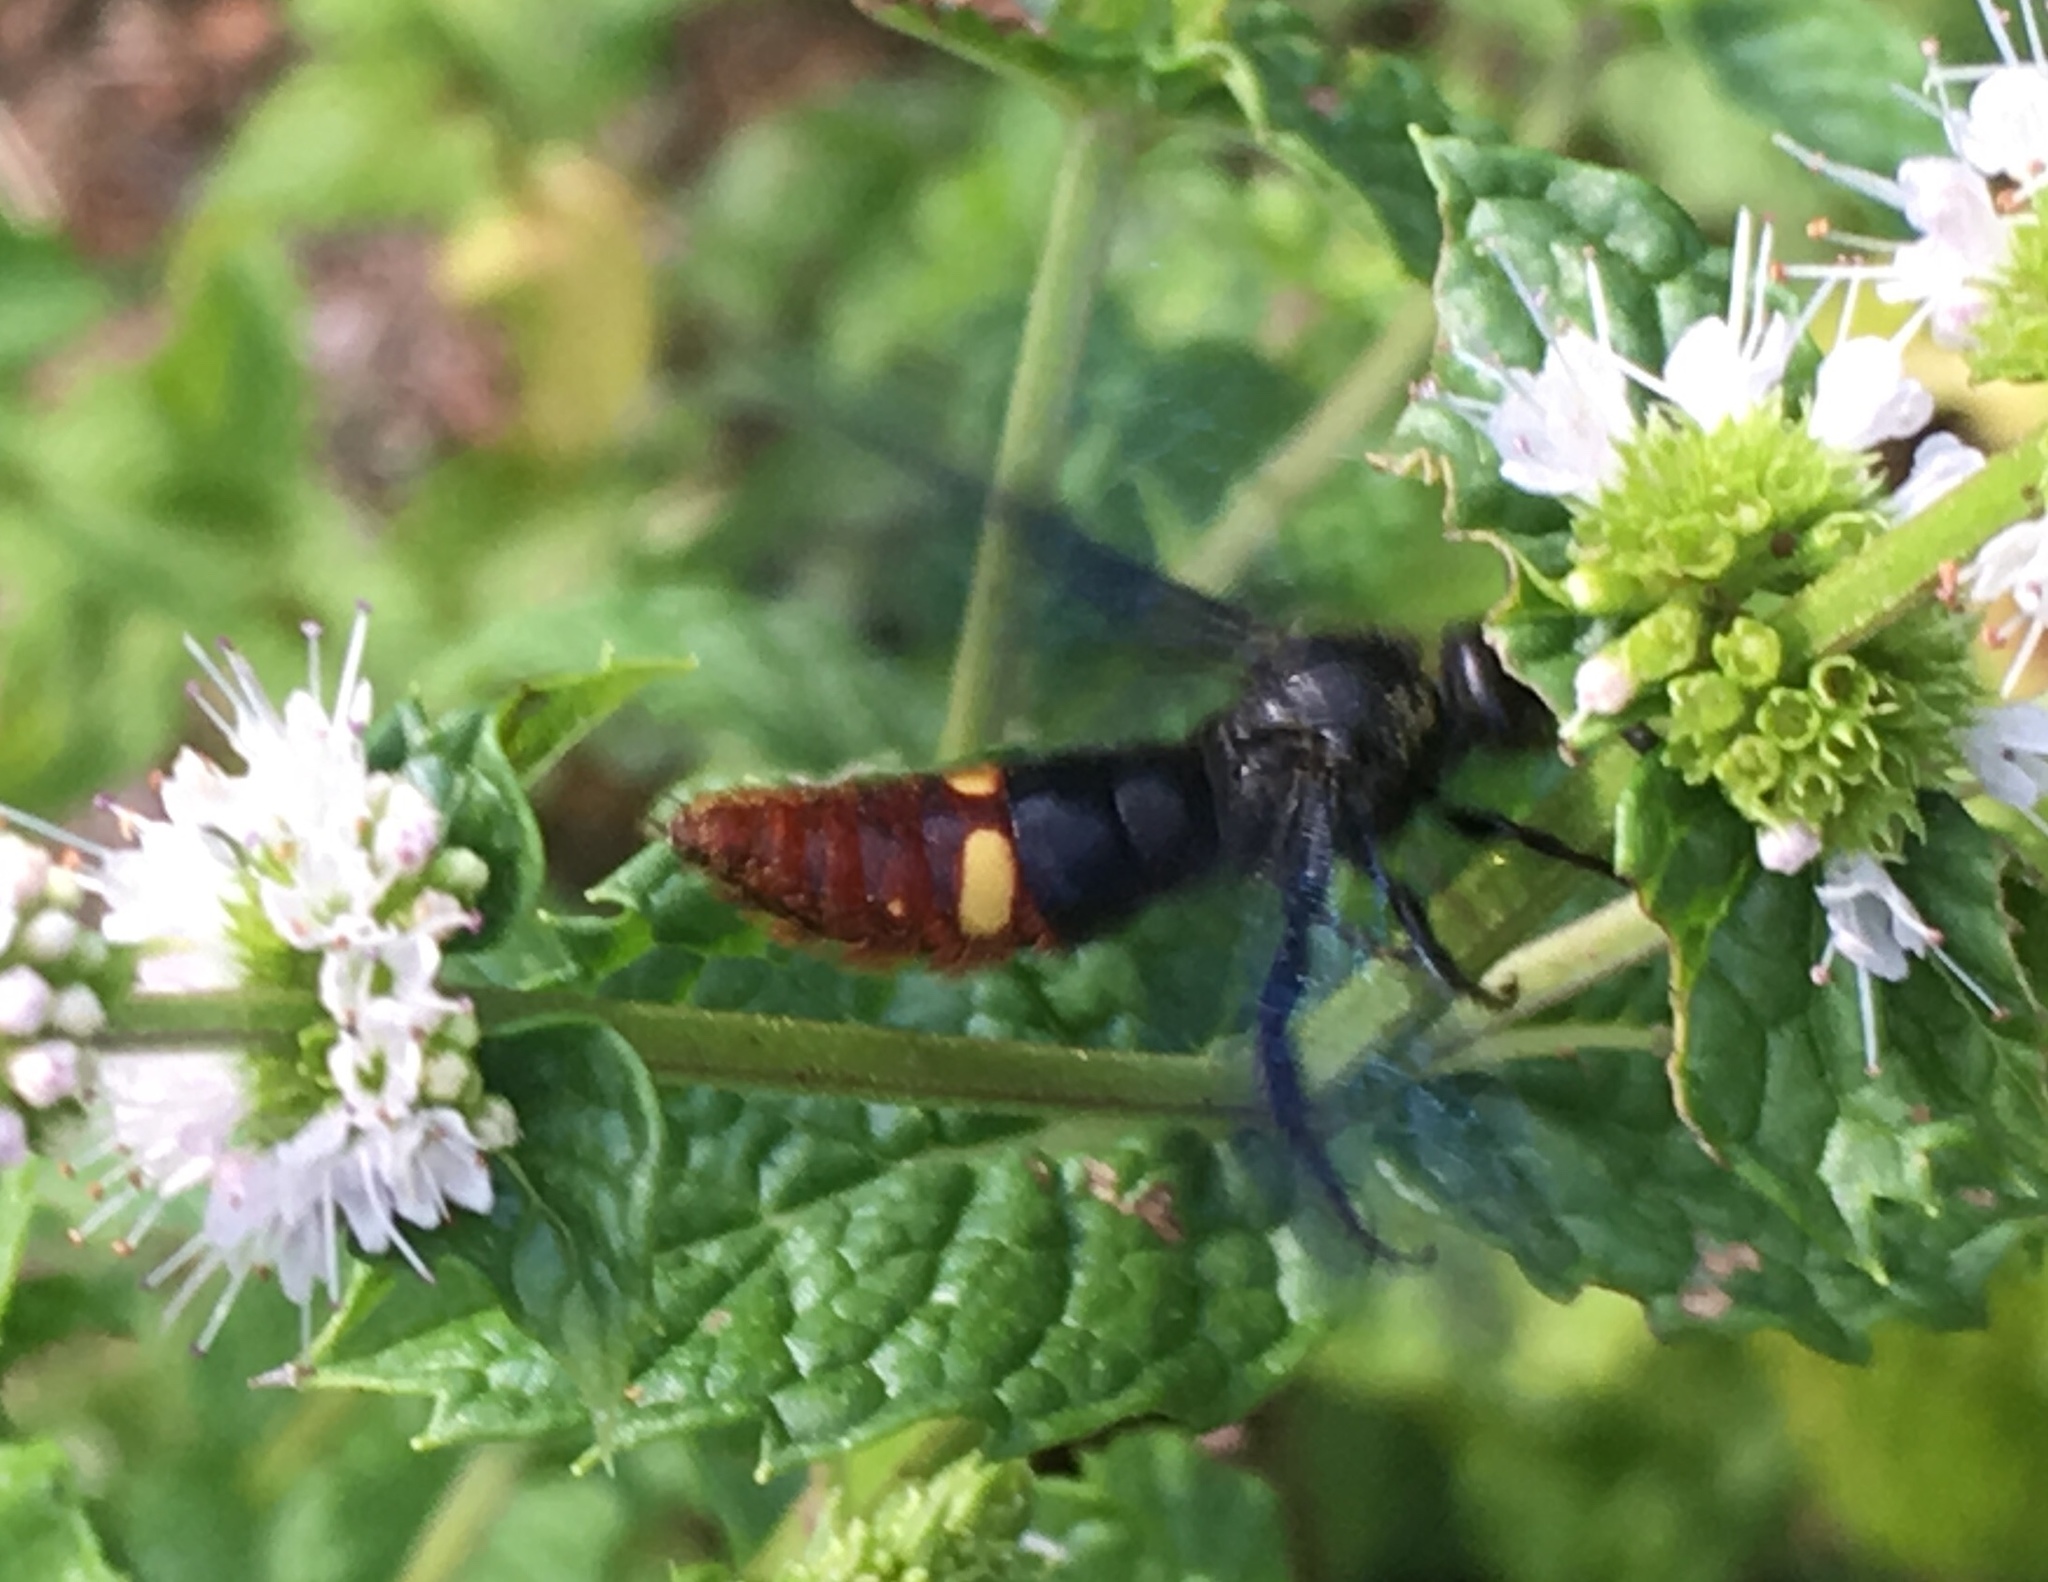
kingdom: Animalia
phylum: Arthropoda
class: Insecta
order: Hymenoptera
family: Scoliidae
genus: Scolia
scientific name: Scolia dubia
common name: Blue-winged scoliid wasp
